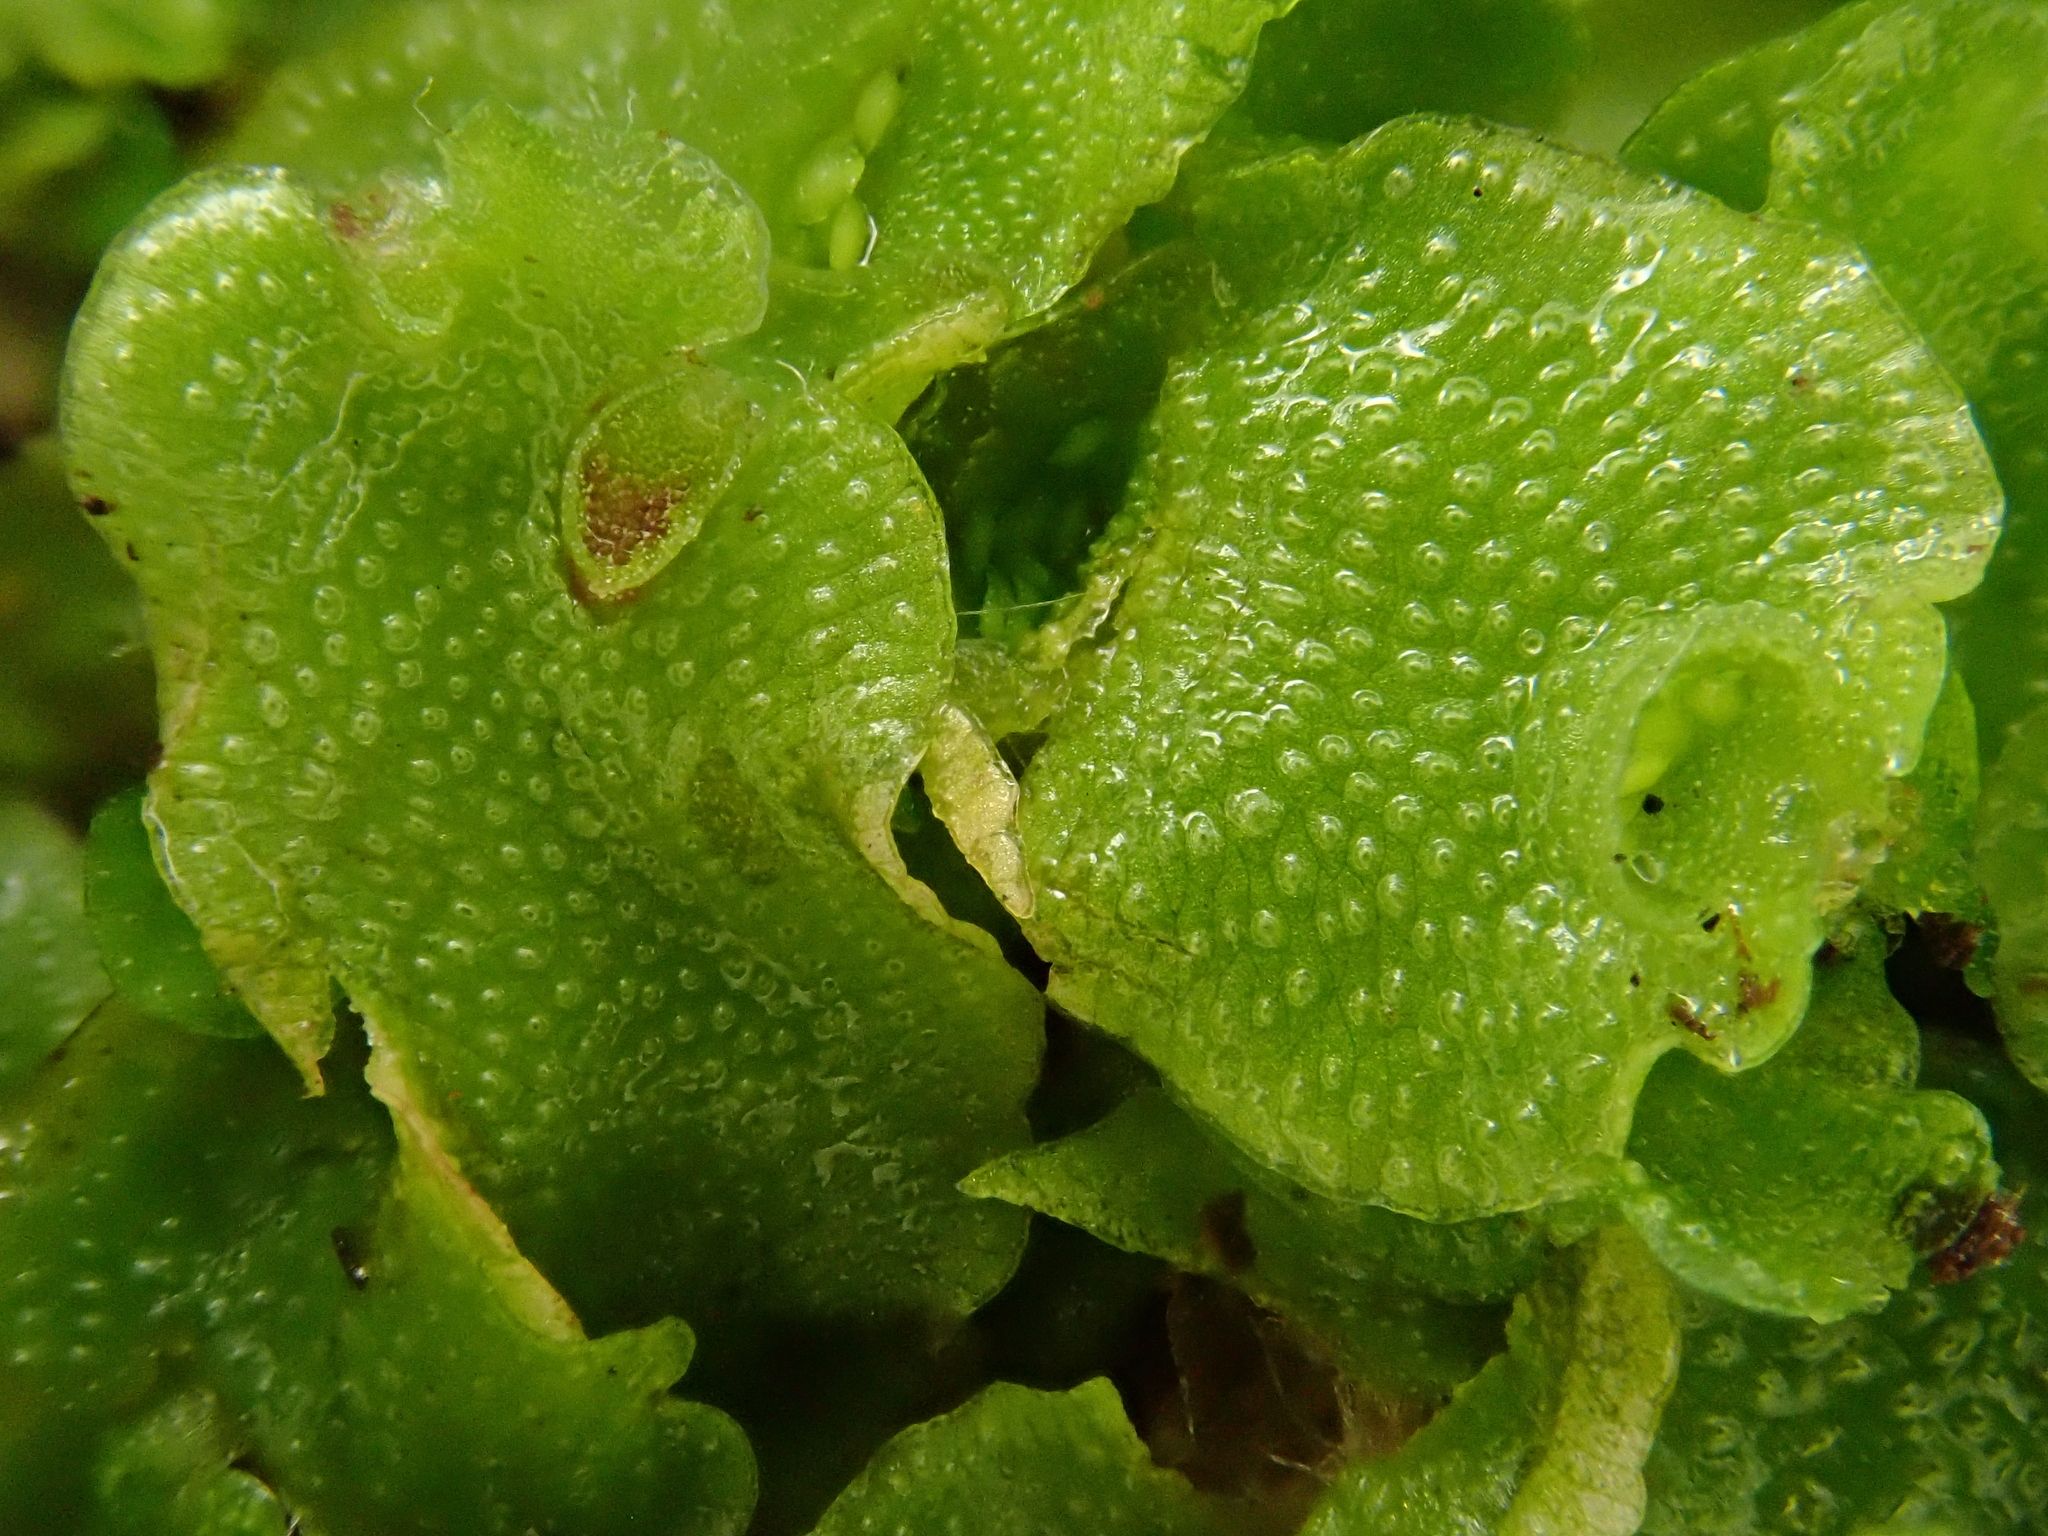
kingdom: Plantae
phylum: Marchantiophyta
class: Marchantiopsida
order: Lunulariales
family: Lunulariaceae
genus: Lunularia
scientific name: Lunularia cruciata
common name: Crescent-cup liverwort
